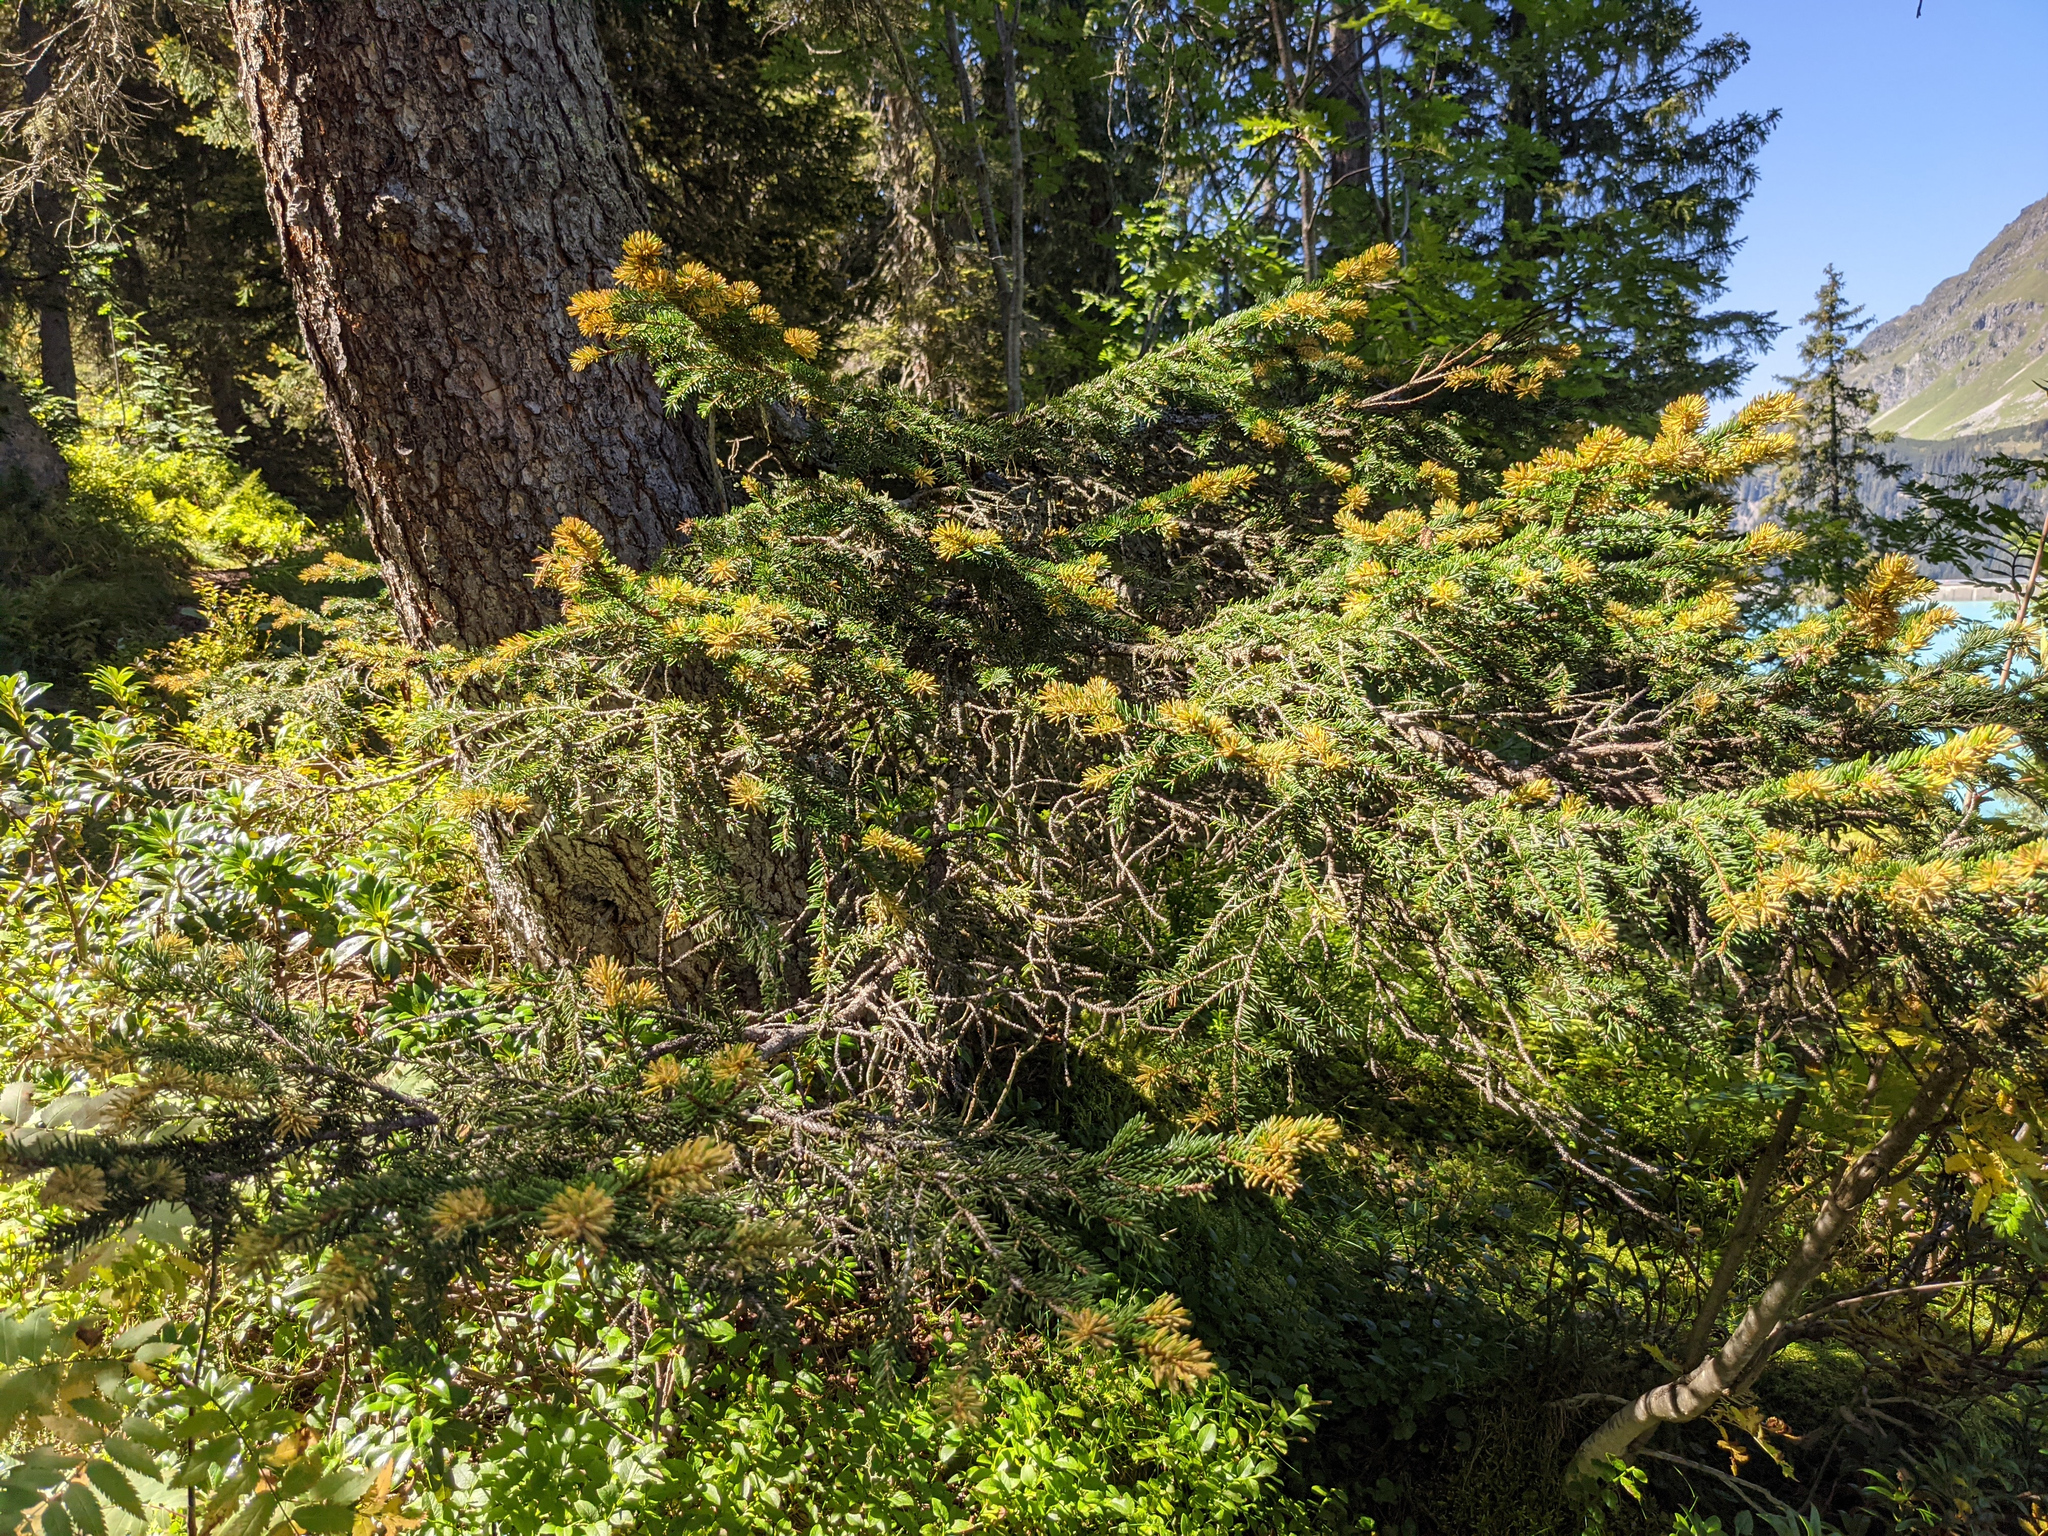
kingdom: Plantae
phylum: Tracheophyta
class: Pinopsida
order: Pinales
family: Pinaceae
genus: Picea
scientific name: Picea abies
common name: Norway spruce
